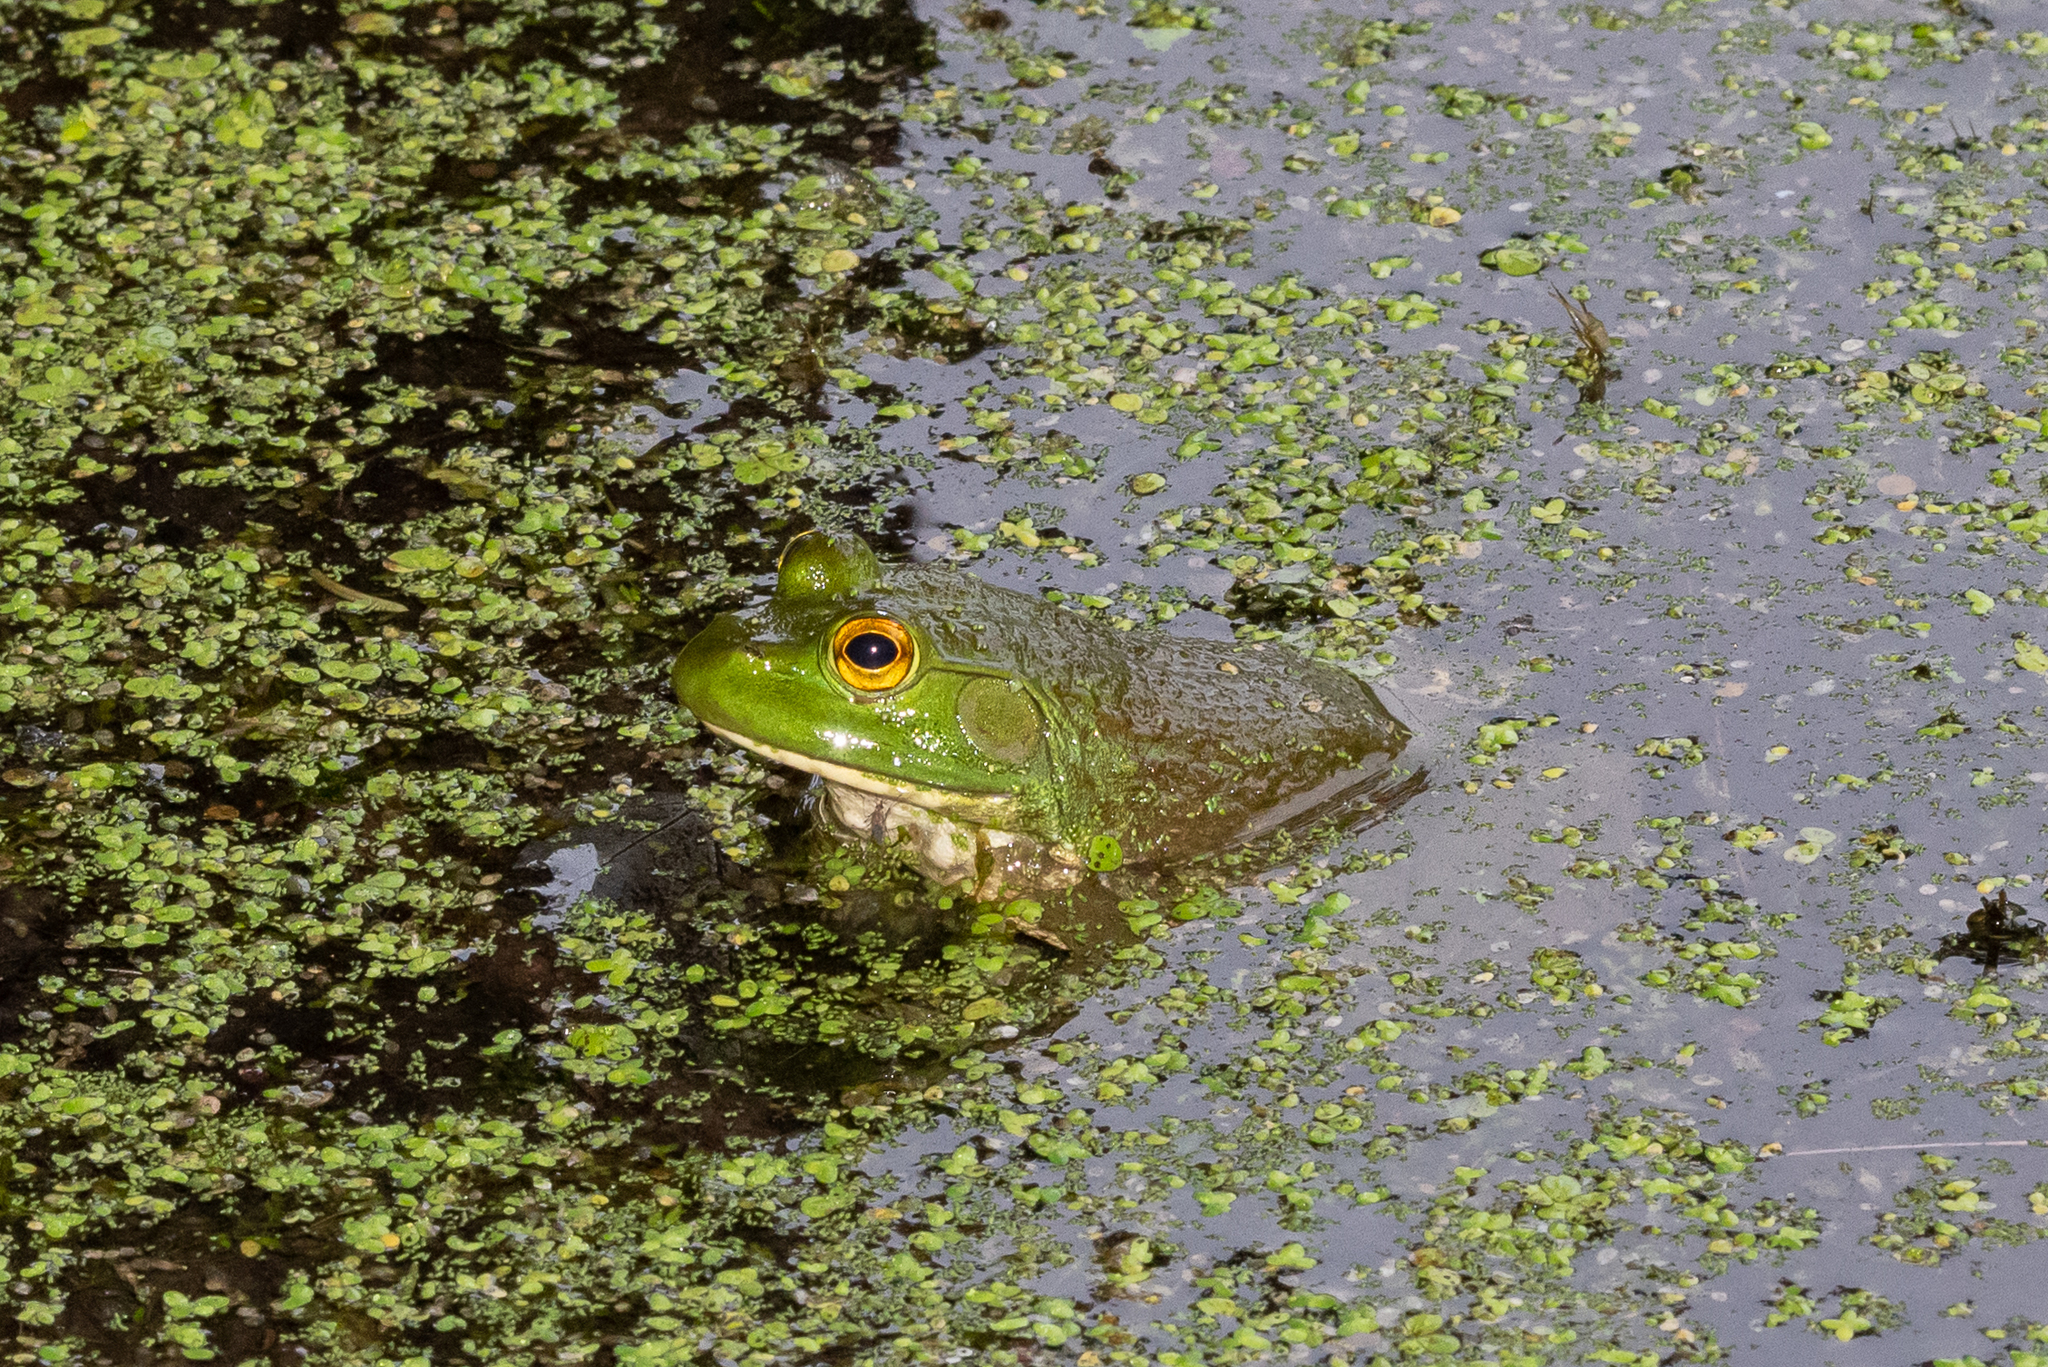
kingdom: Animalia
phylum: Chordata
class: Amphibia
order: Anura
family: Ranidae
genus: Lithobates
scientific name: Lithobates catesbeianus
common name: American bullfrog
